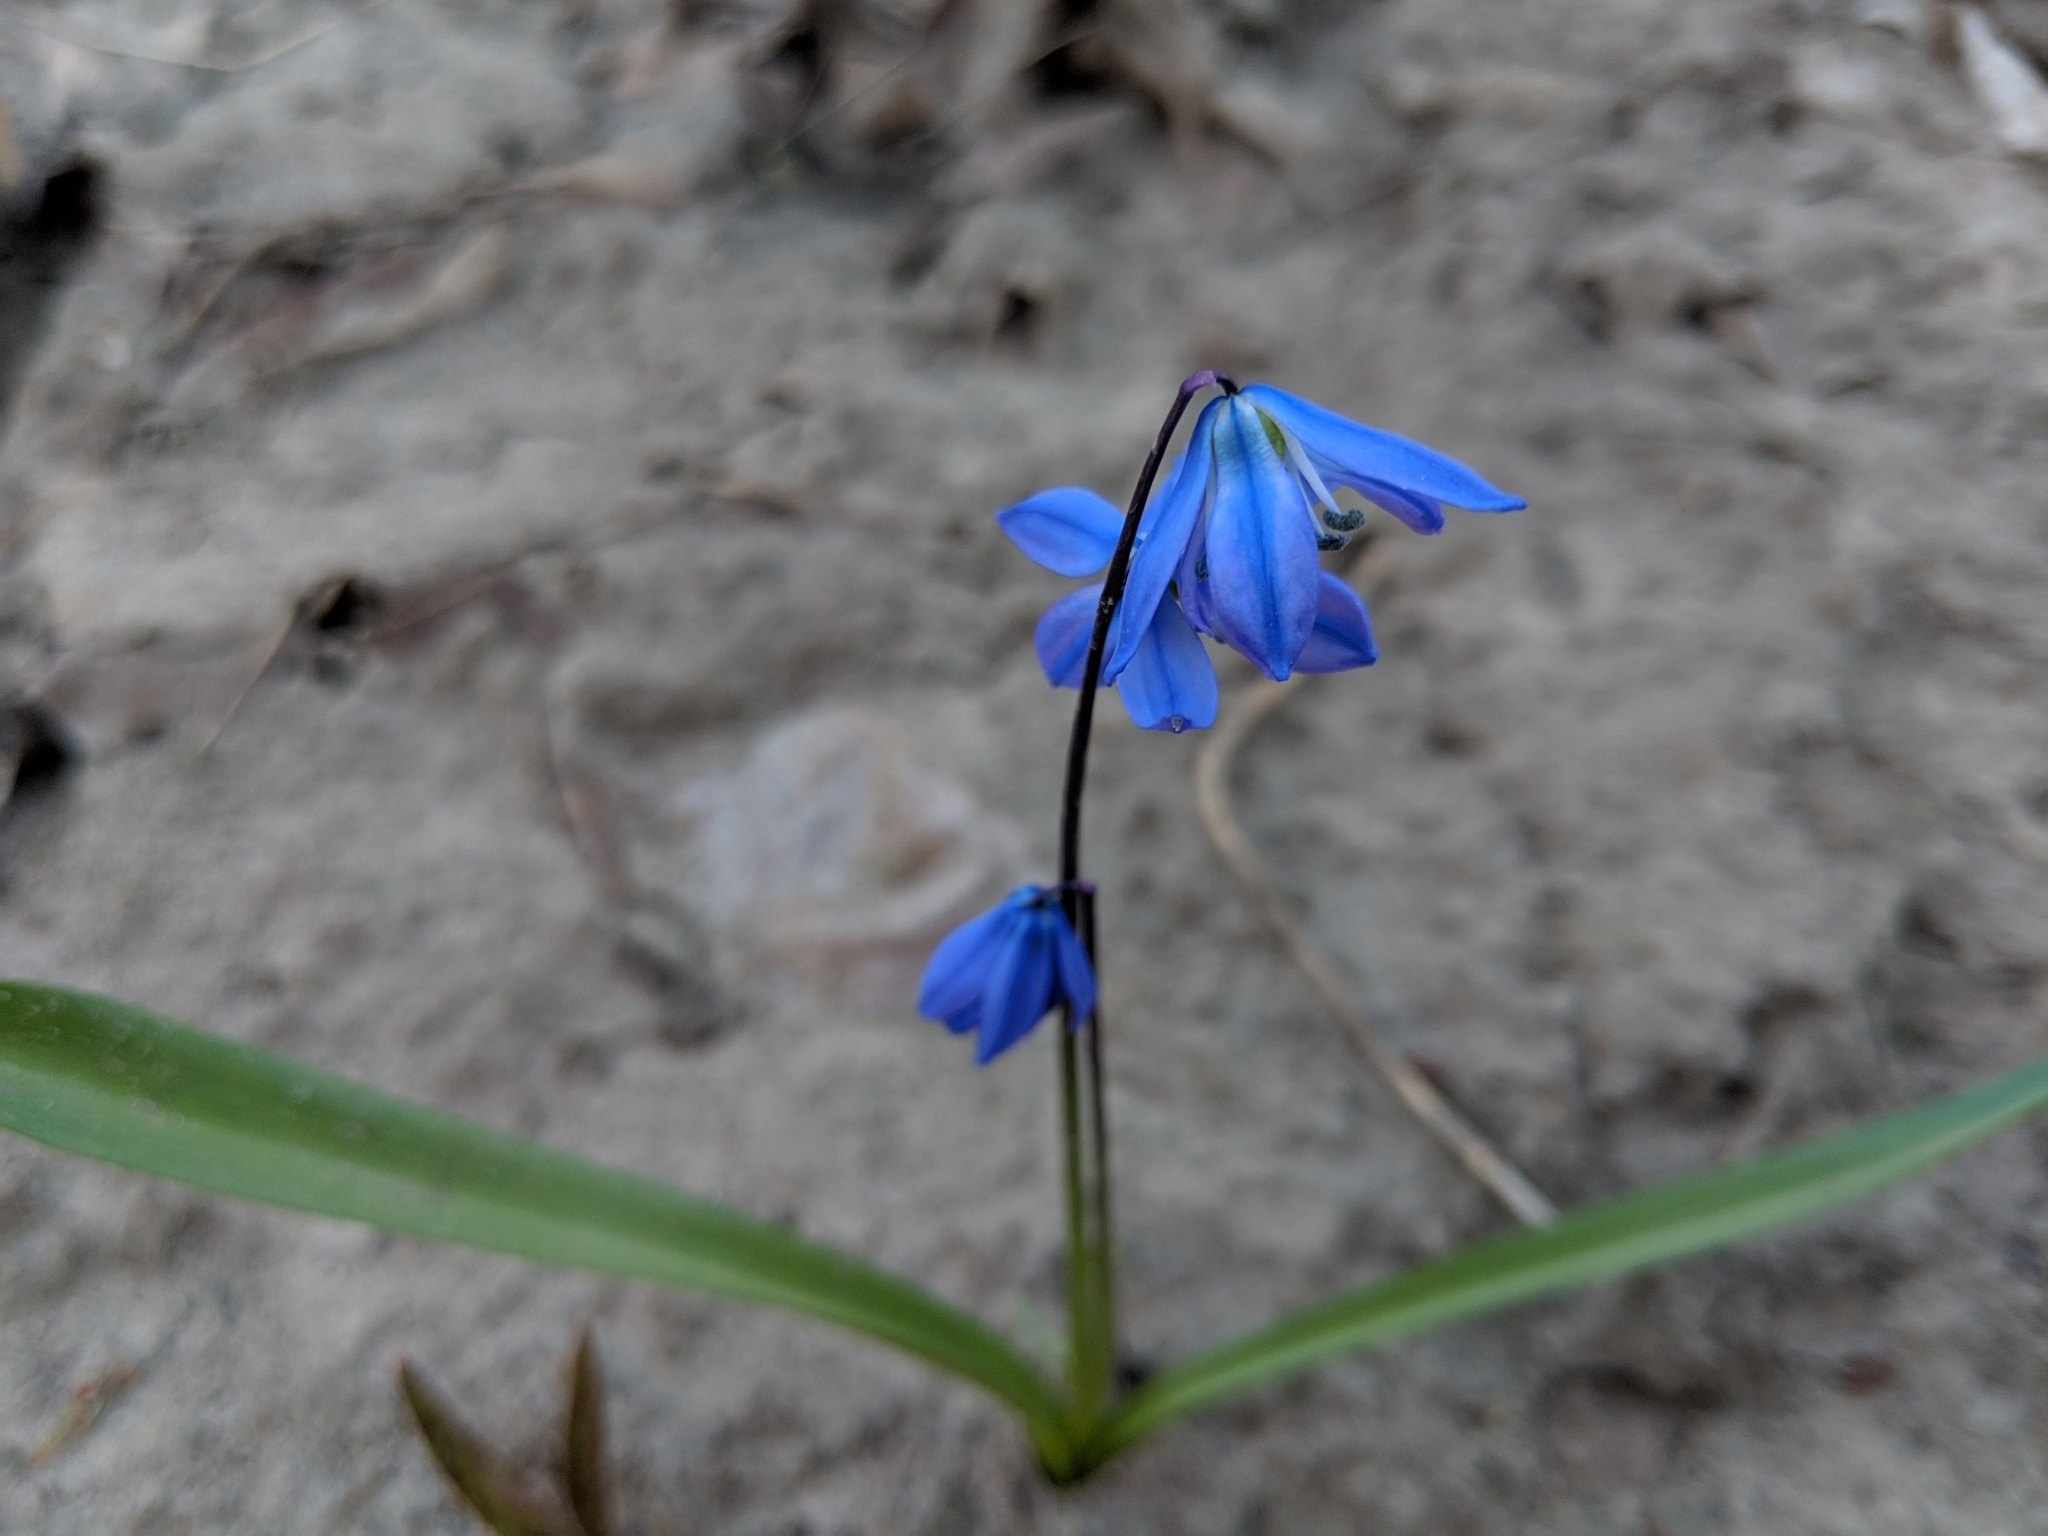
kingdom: Plantae
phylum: Tracheophyta
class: Liliopsida
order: Asparagales
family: Asparagaceae
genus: Scilla
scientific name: Scilla siberica
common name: Siberian squill
